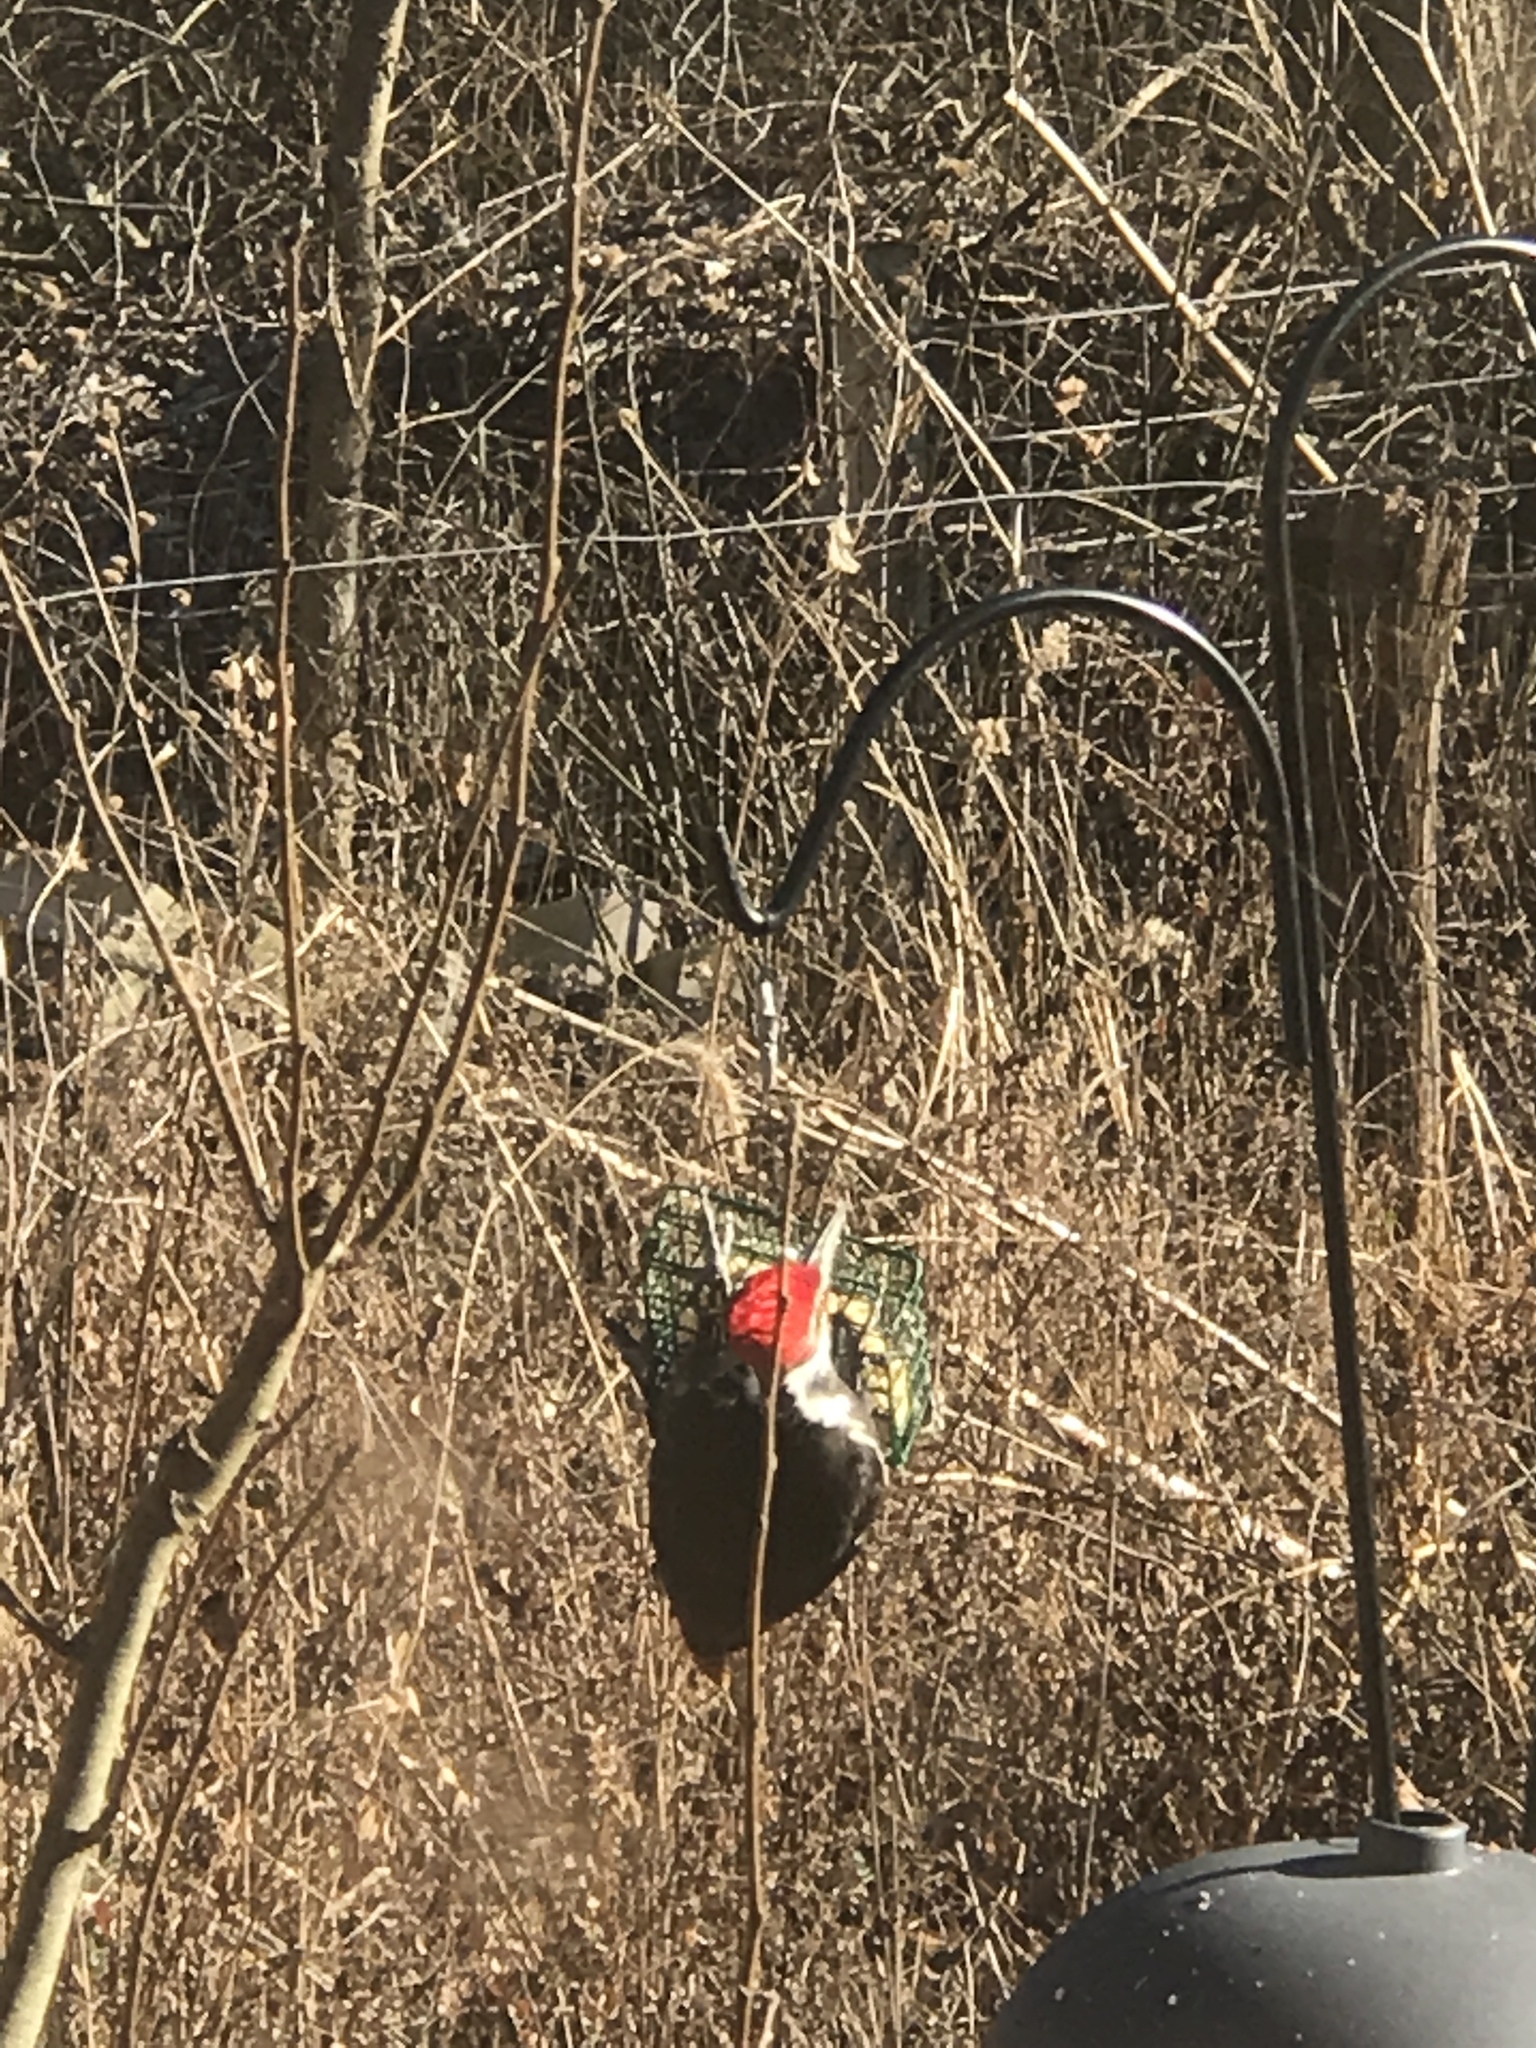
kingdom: Animalia
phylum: Chordata
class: Aves
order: Piciformes
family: Picidae
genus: Dryocopus
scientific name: Dryocopus pileatus
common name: Pileated woodpecker
